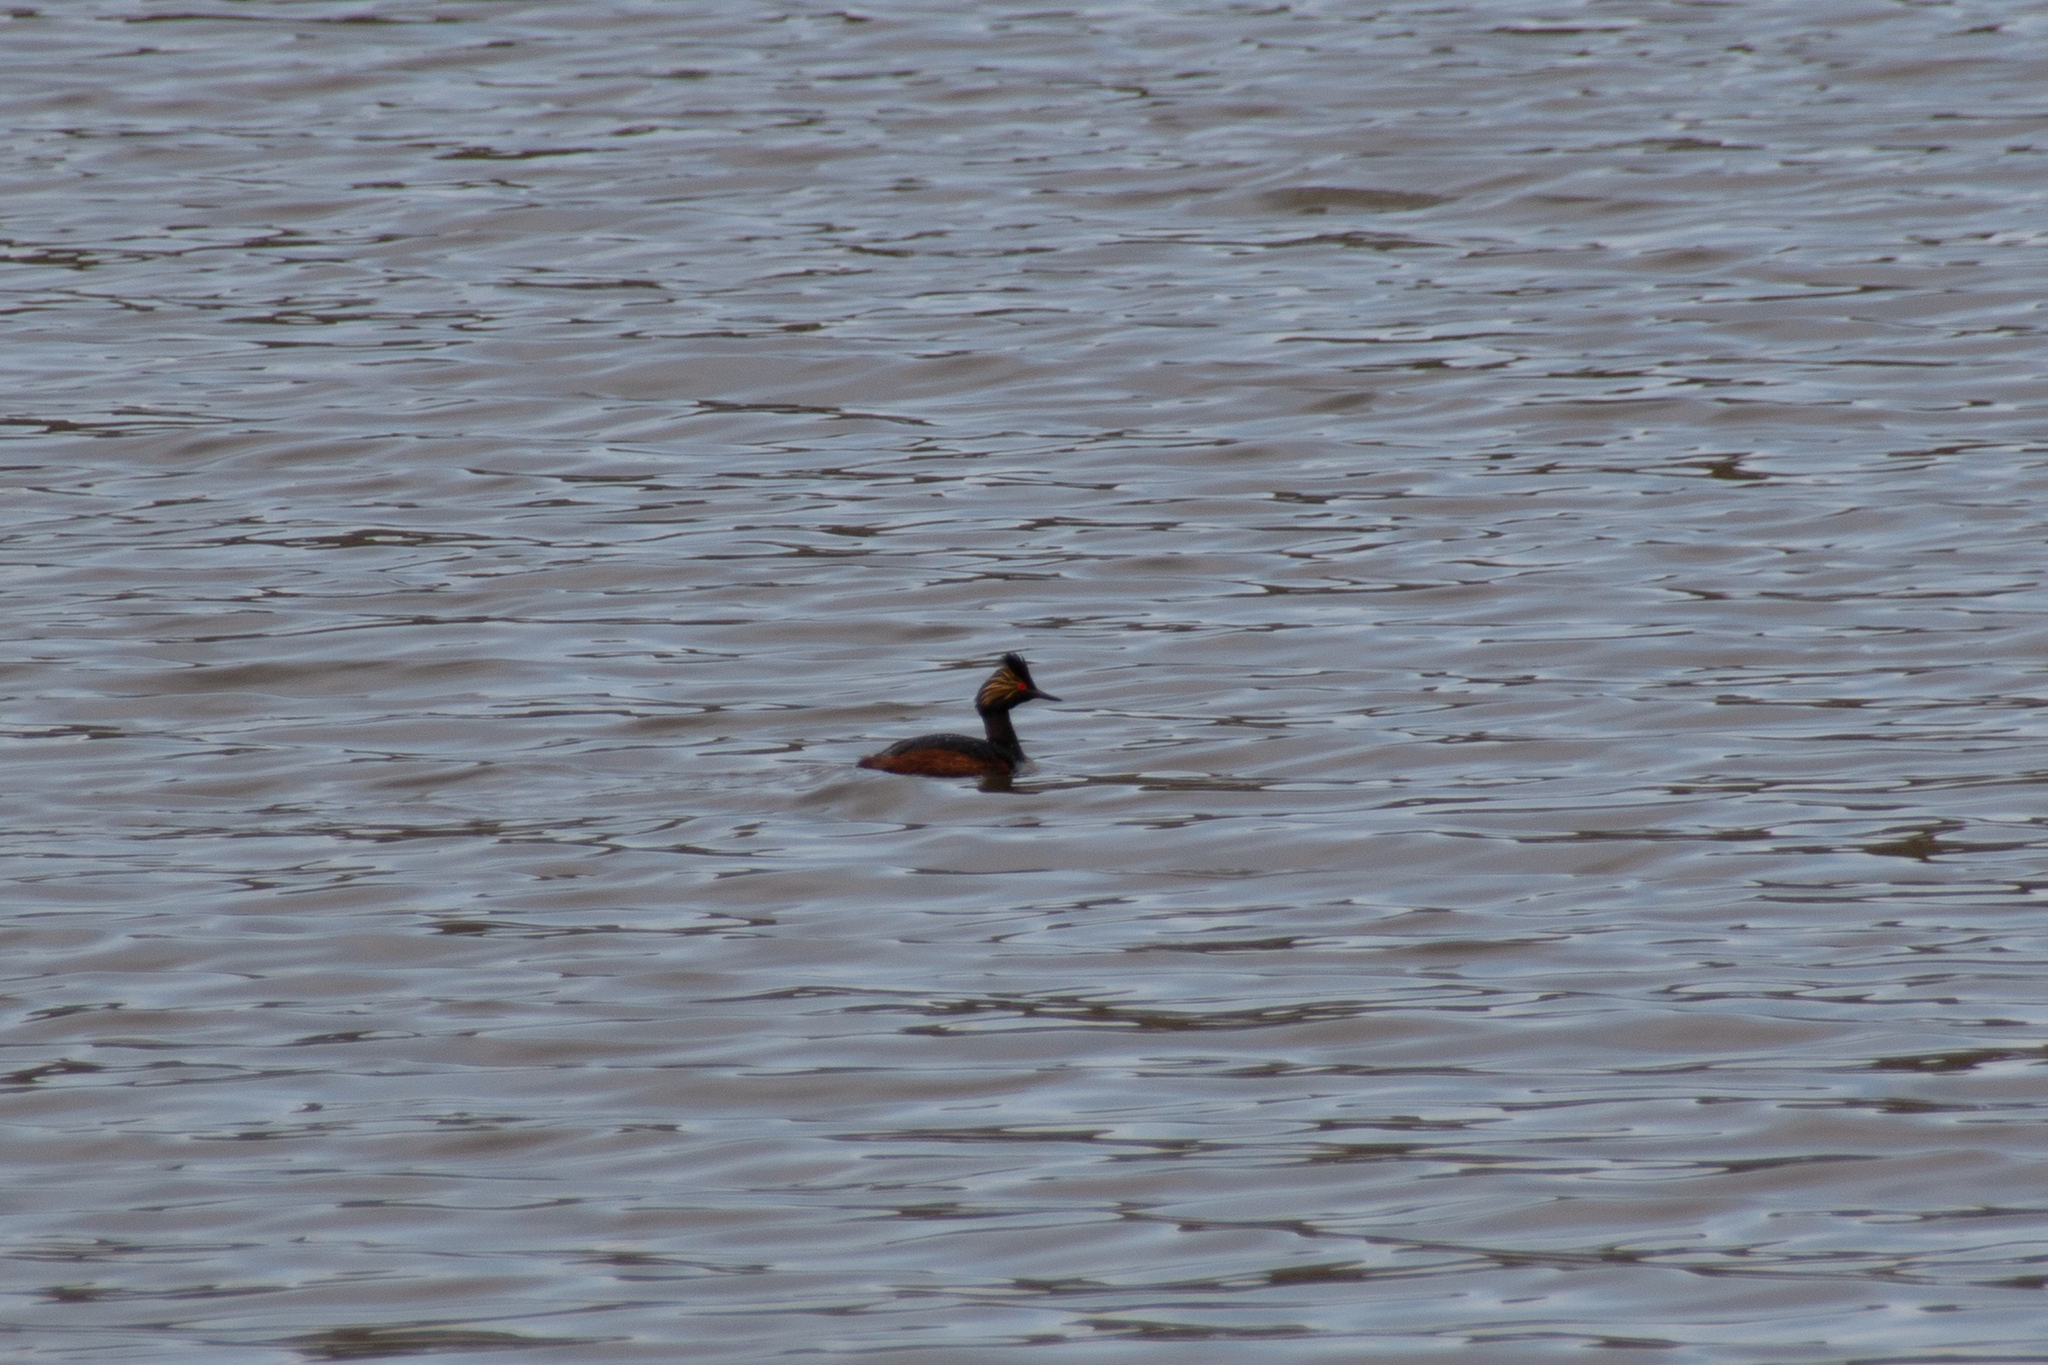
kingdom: Animalia
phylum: Chordata
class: Aves
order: Podicipediformes
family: Podicipedidae
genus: Podiceps
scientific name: Podiceps nigricollis
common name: Black-necked grebe
